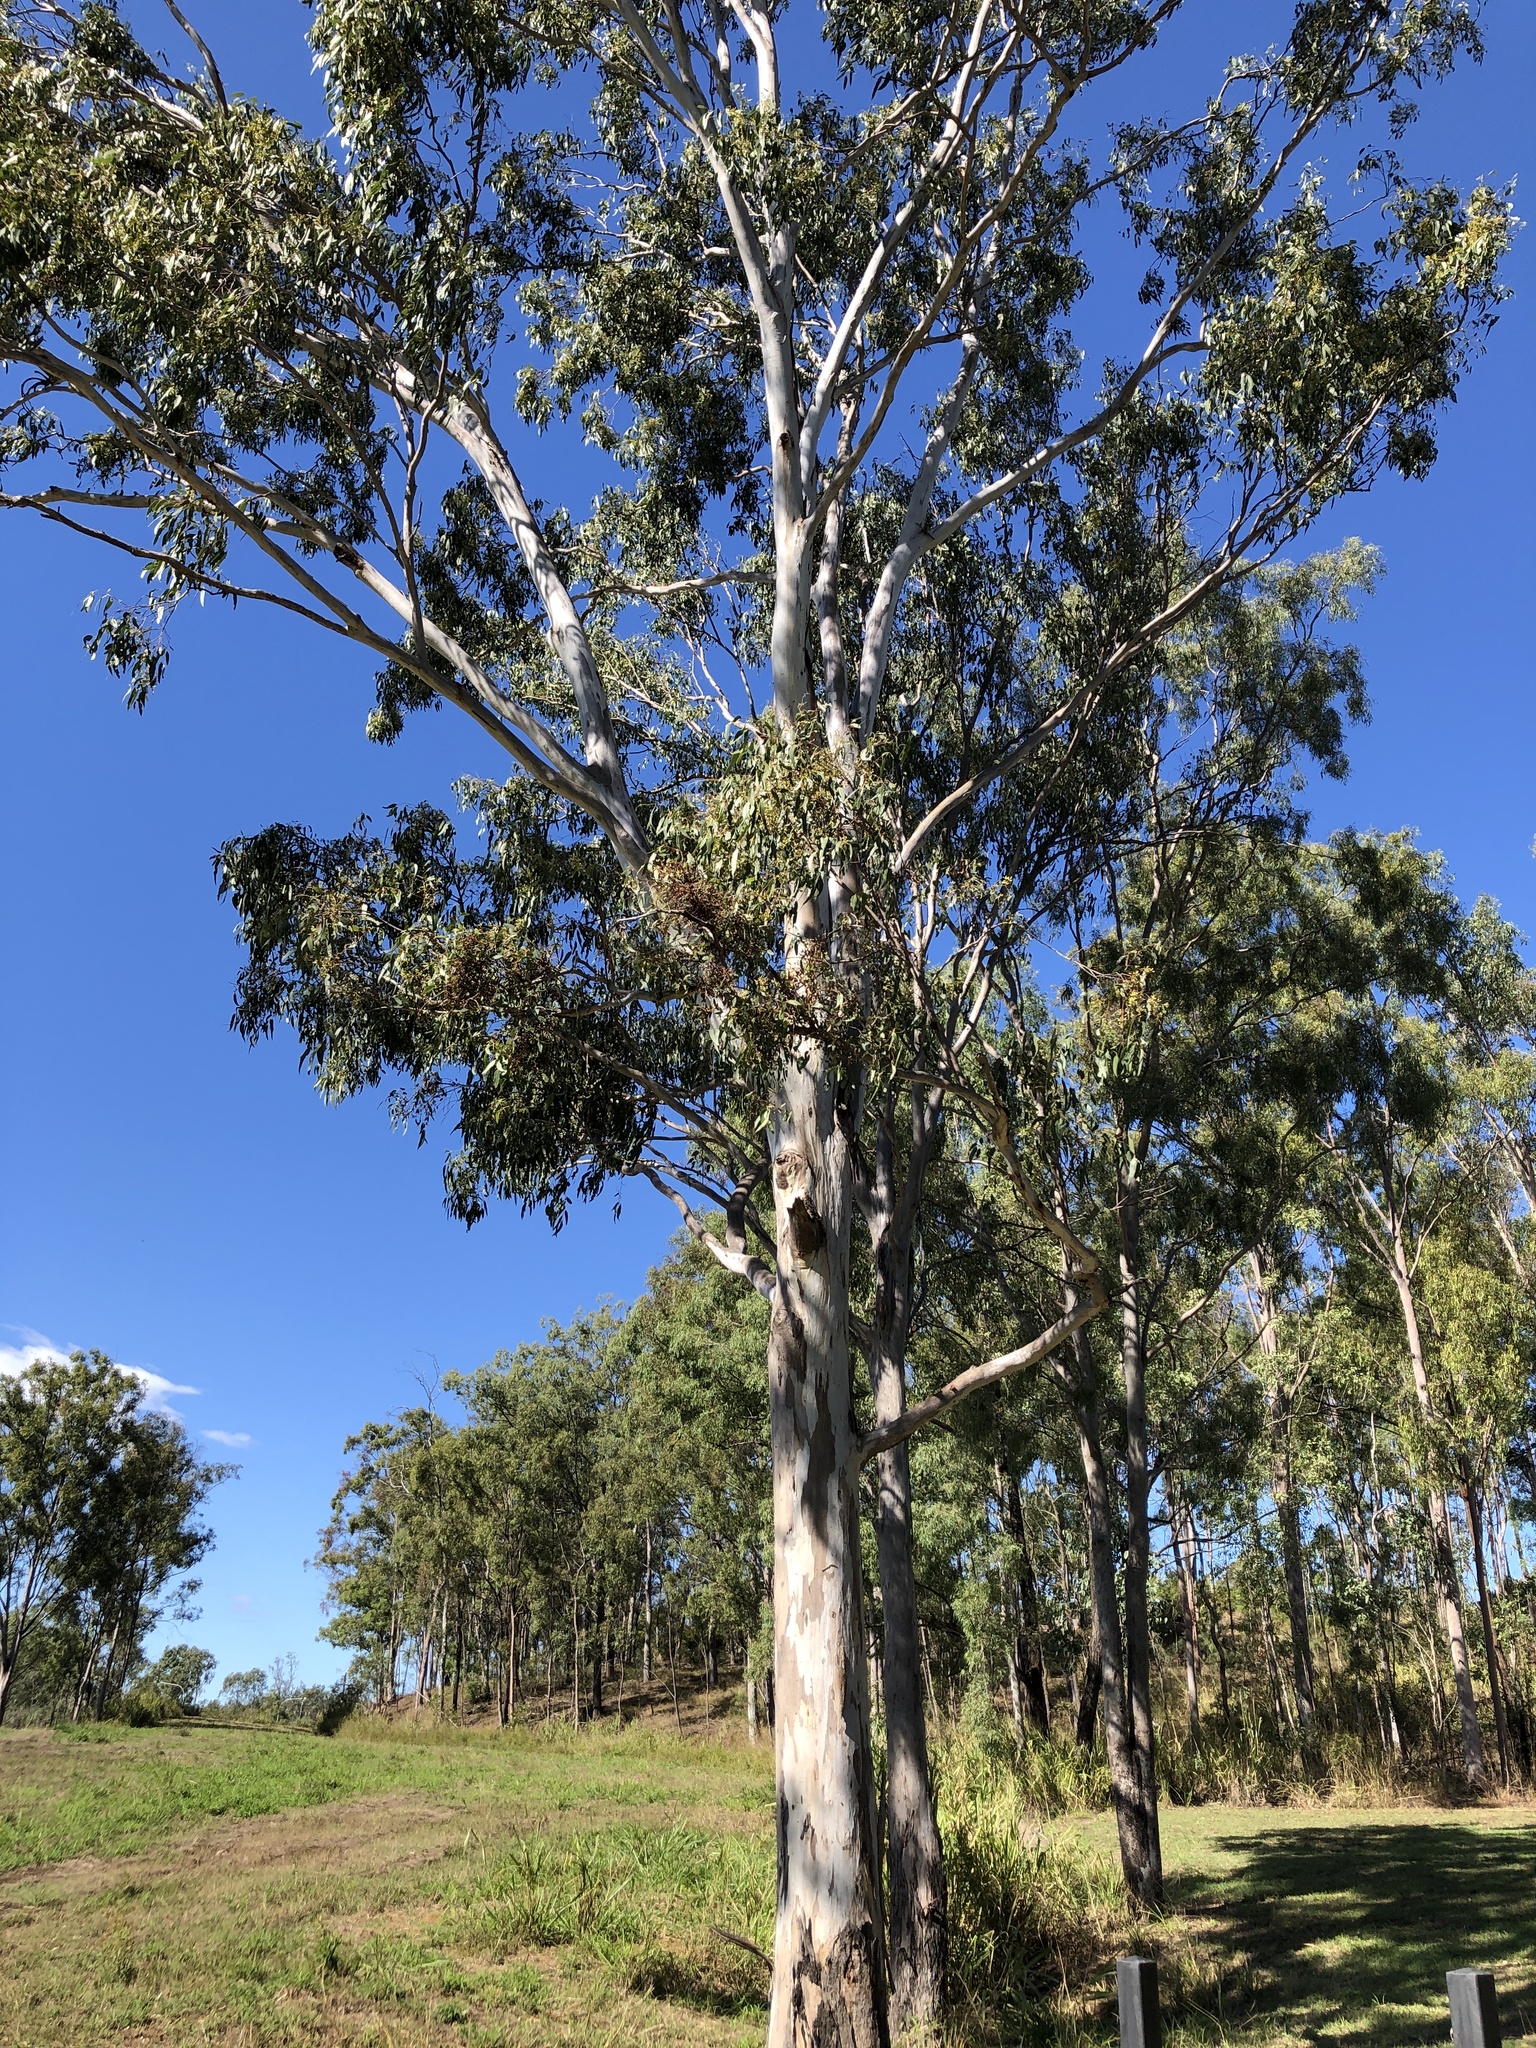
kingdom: Plantae
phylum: Tracheophyta
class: Magnoliopsida
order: Myrtales
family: Myrtaceae
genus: Eucalyptus
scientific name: Eucalyptus tereticornis
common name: Forest redgum
